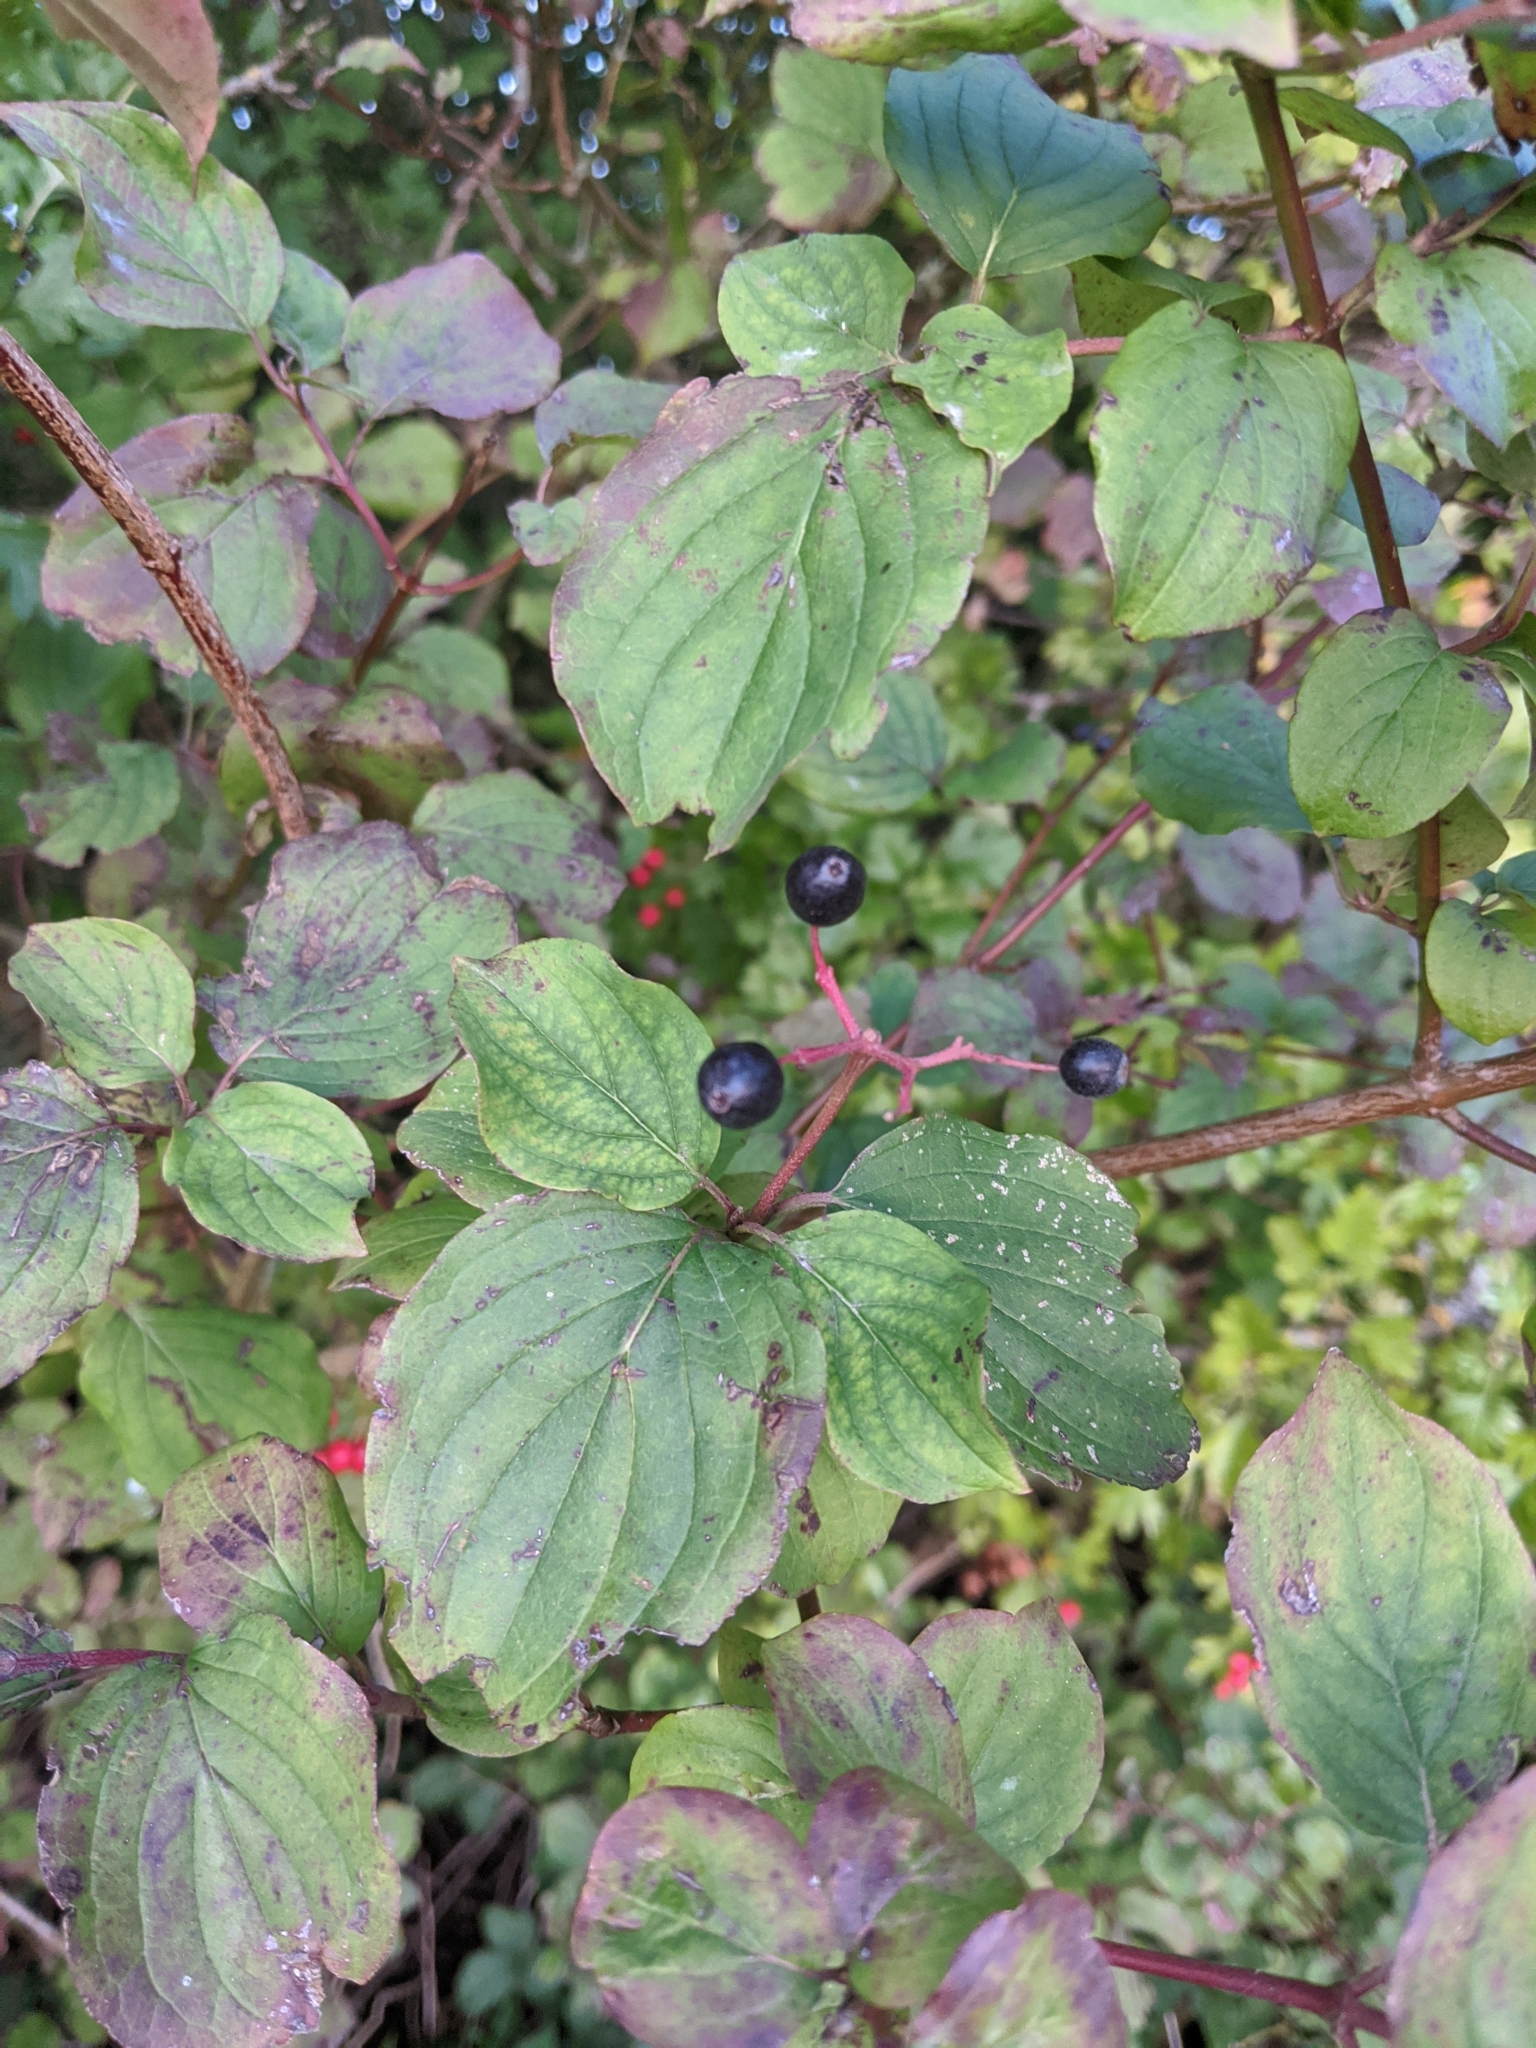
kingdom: Plantae
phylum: Tracheophyta
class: Magnoliopsida
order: Cornales
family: Cornaceae
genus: Cornus
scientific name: Cornus sanguinea
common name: Dogwood
